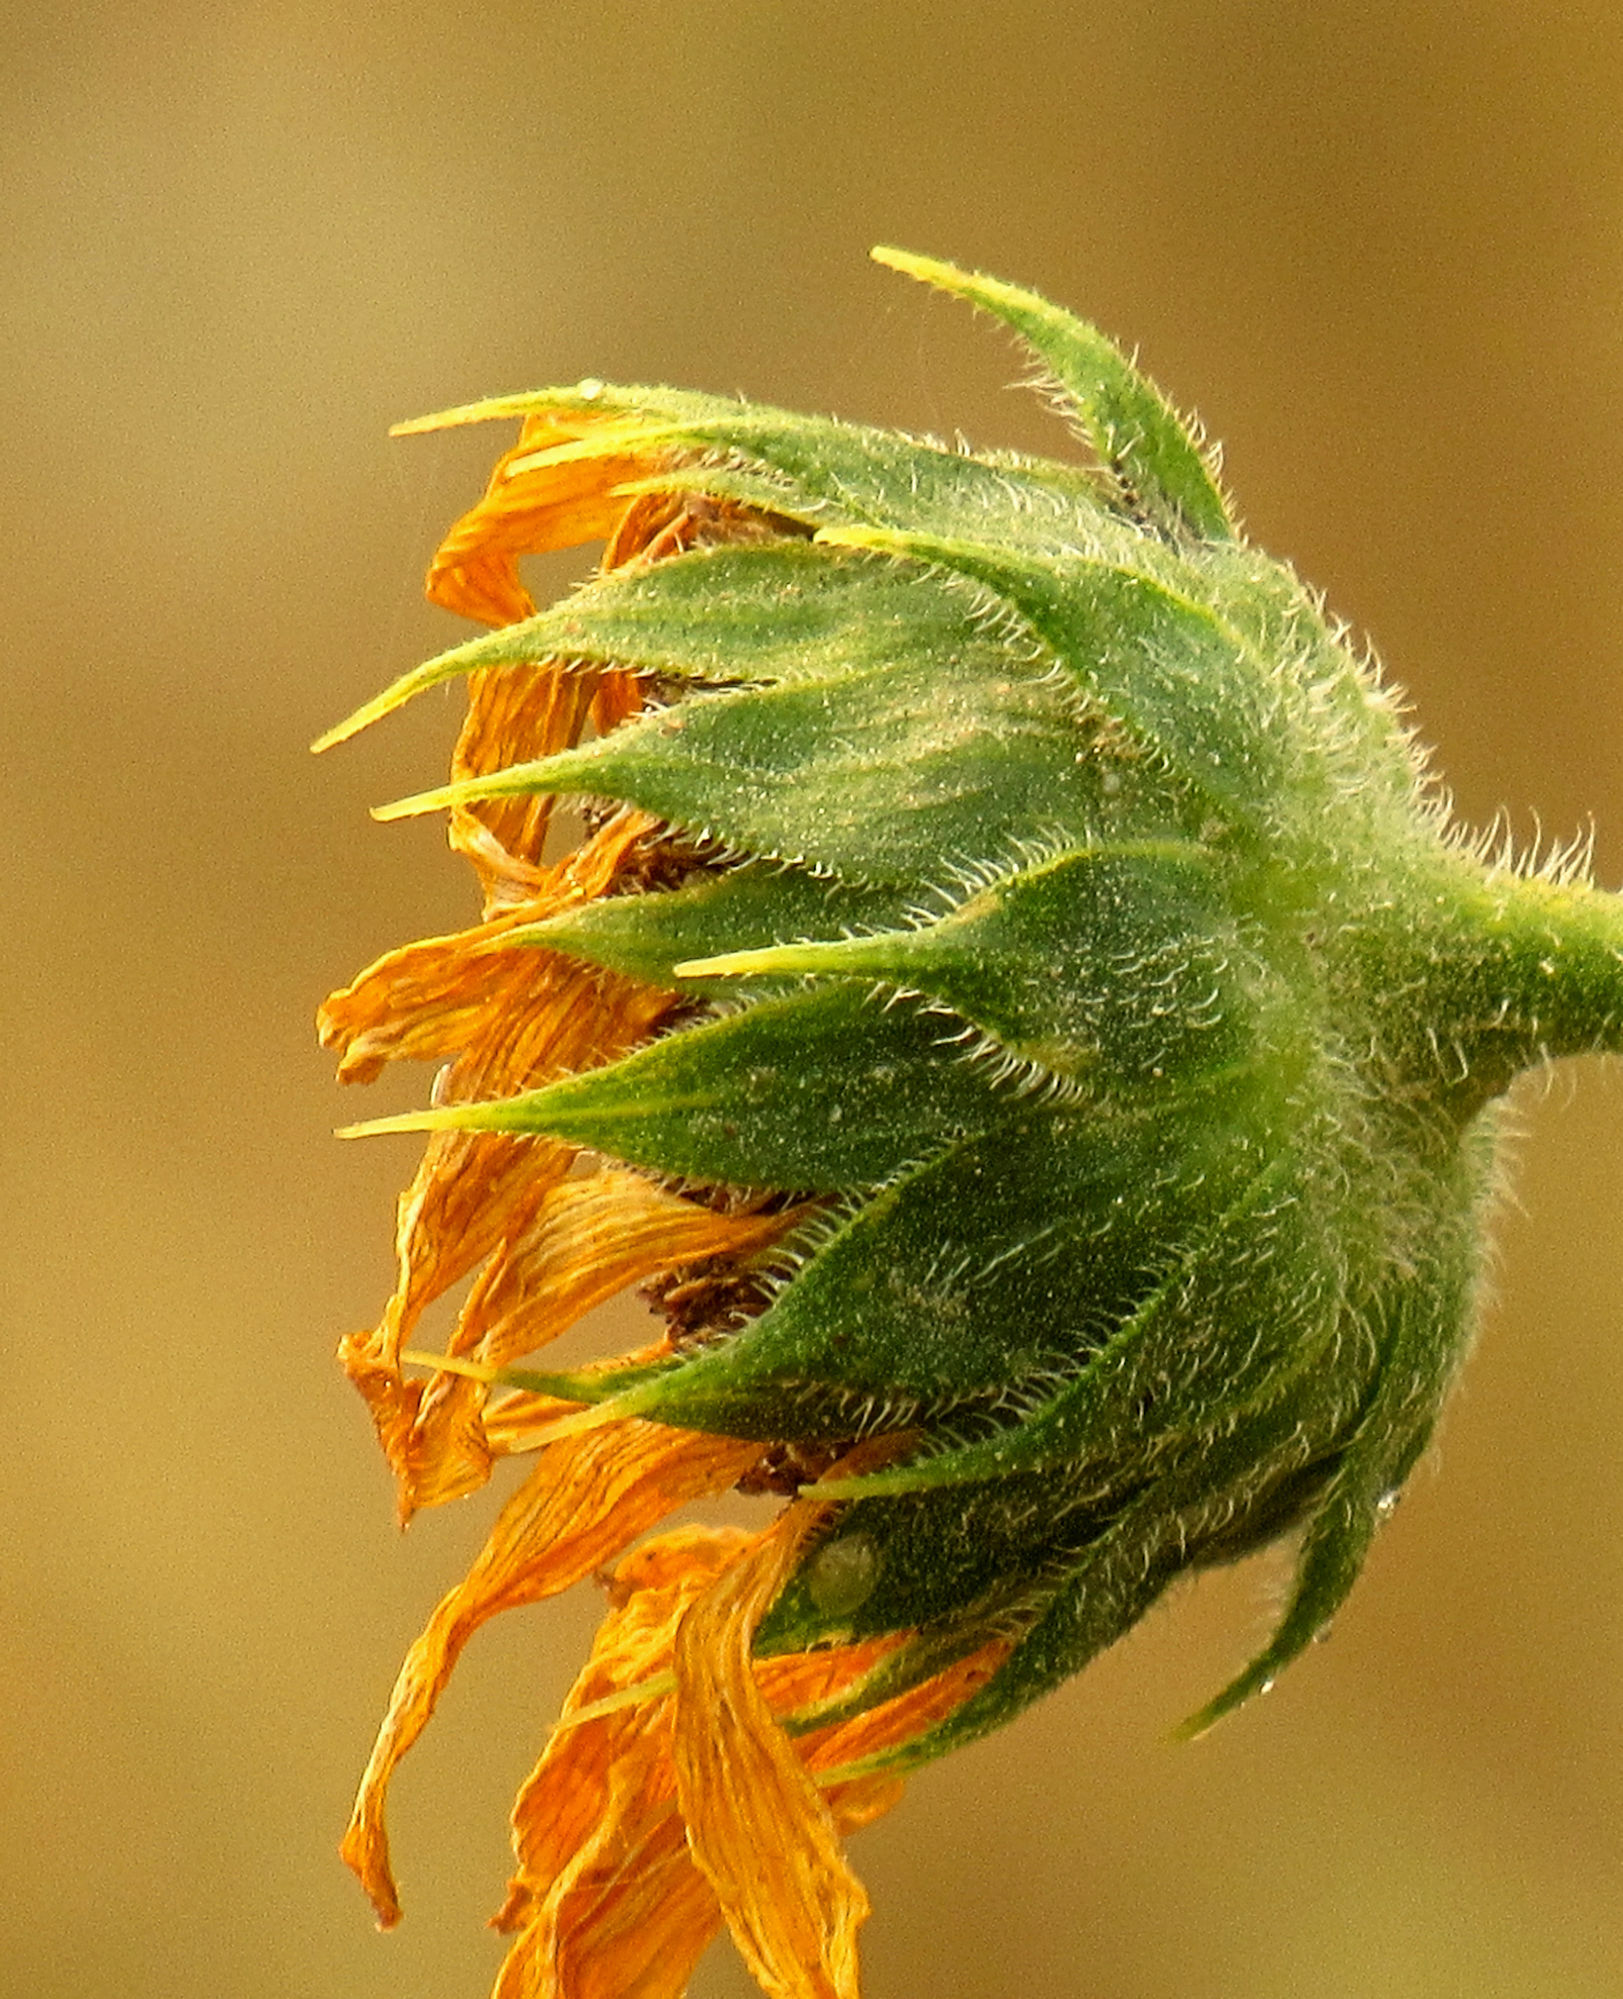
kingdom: Plantae
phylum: Tracheophyta
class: Magnoliopsida
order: Asterales
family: Asteraceae
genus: Helianthus
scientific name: Helianthus annuus
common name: Sunflower
